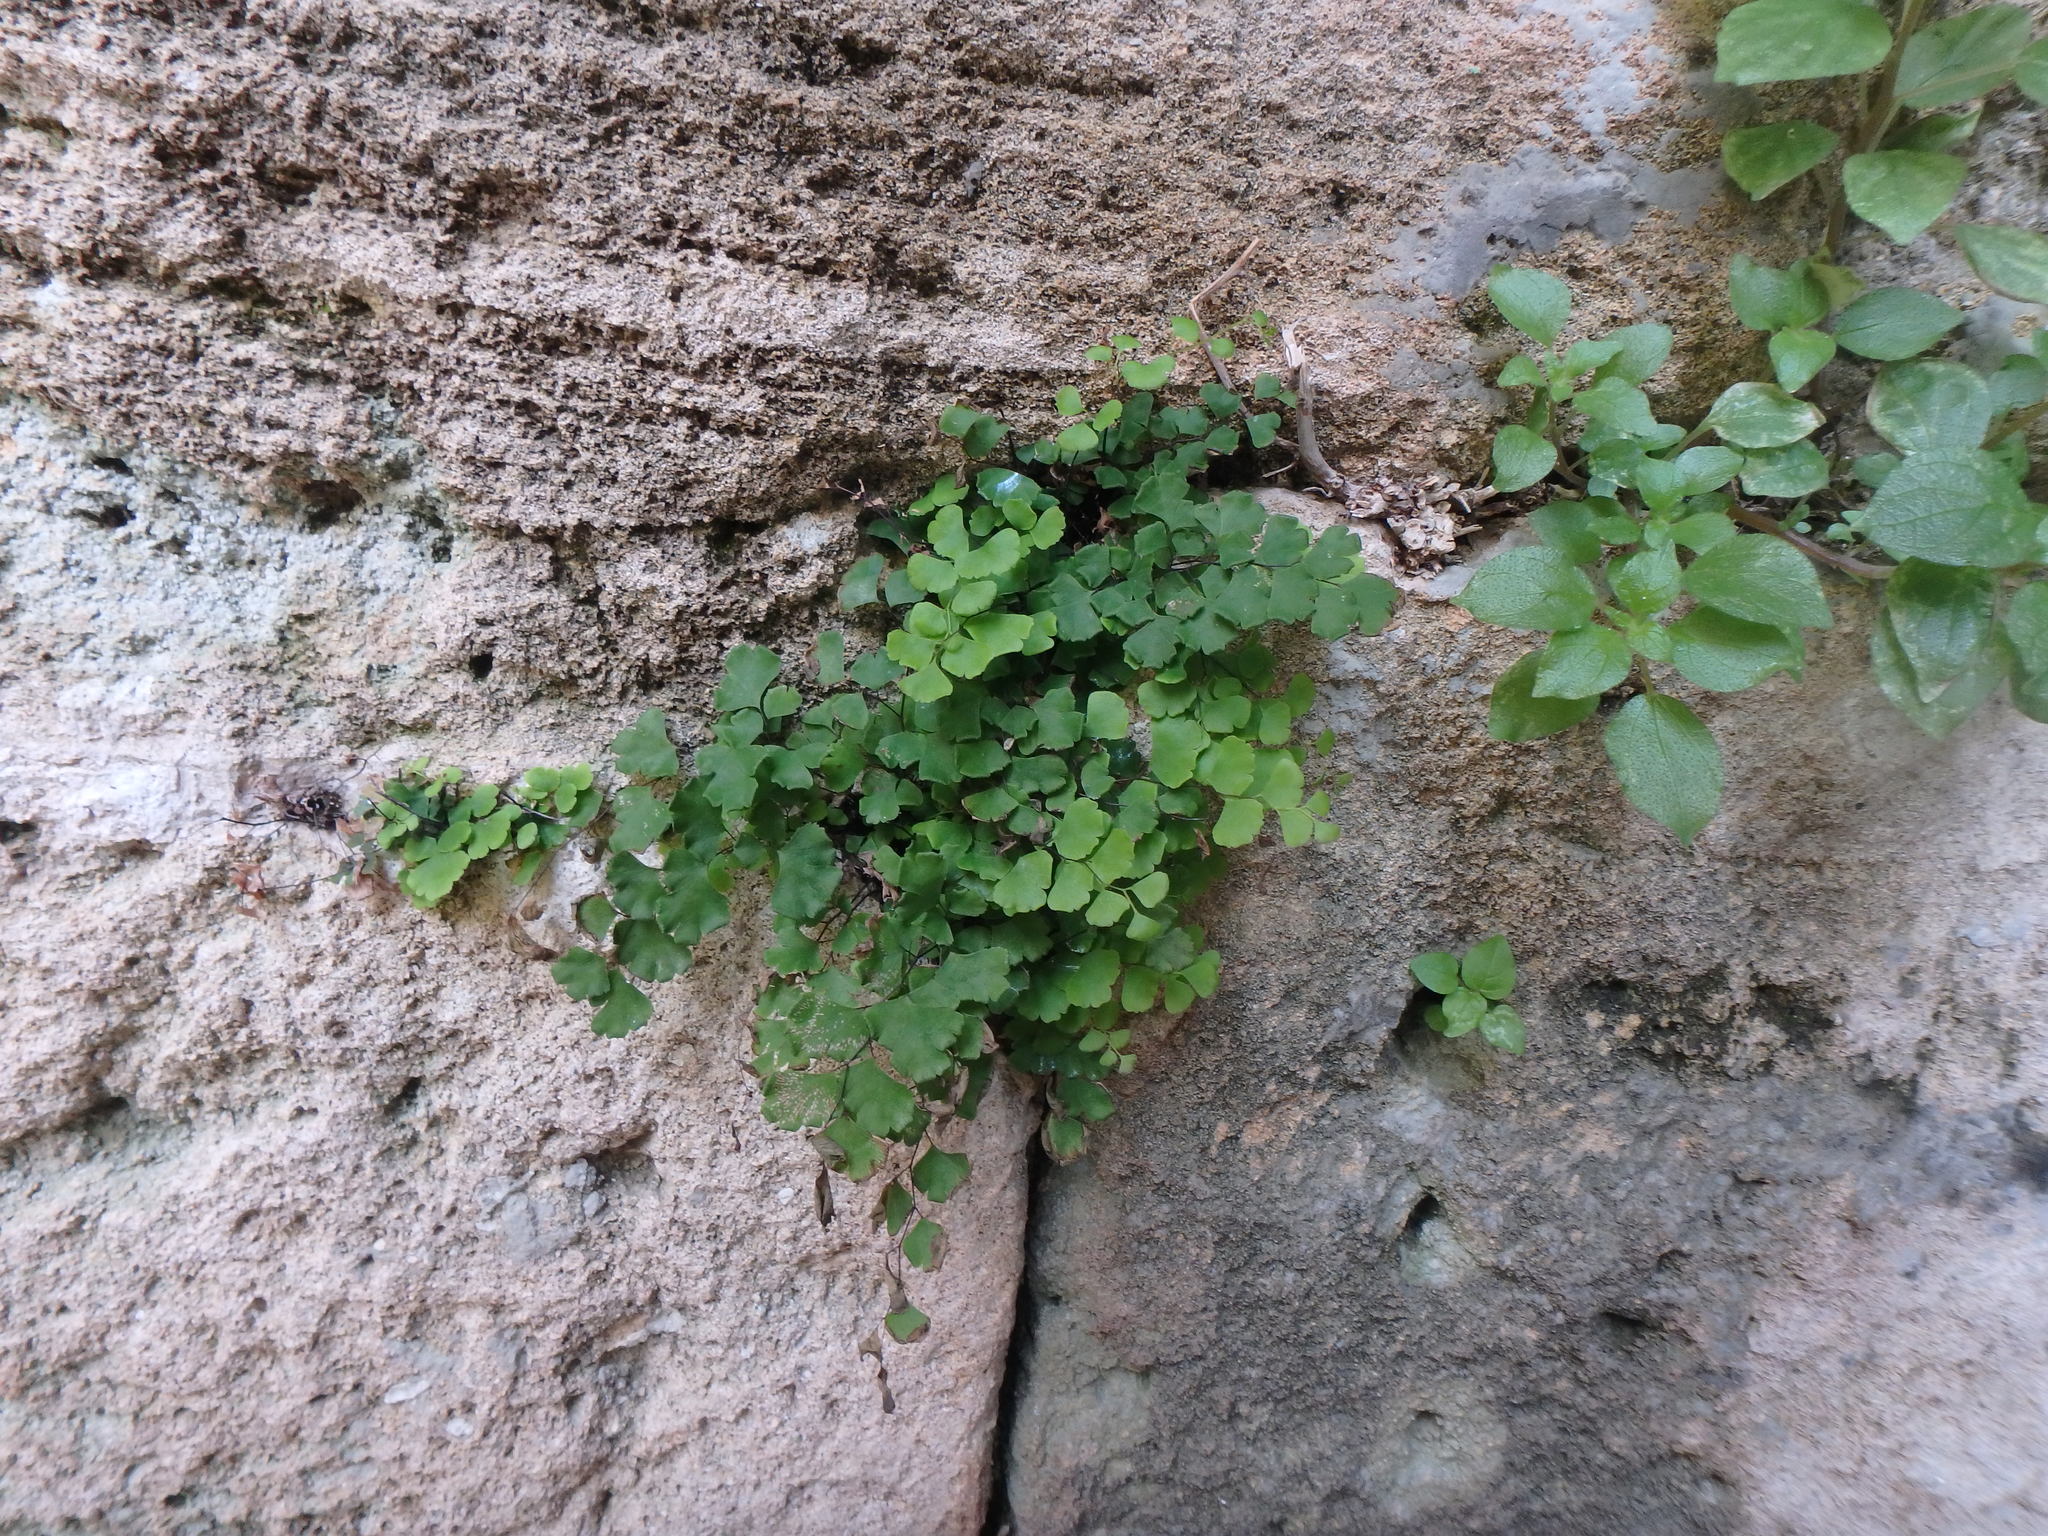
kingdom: Plantae
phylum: Tracheophyta
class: Polypodiopsida
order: Polypodiales
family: Pteridaceae
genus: Adiantum
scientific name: Adiantum capillus-veneris
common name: Maidenhair fern
